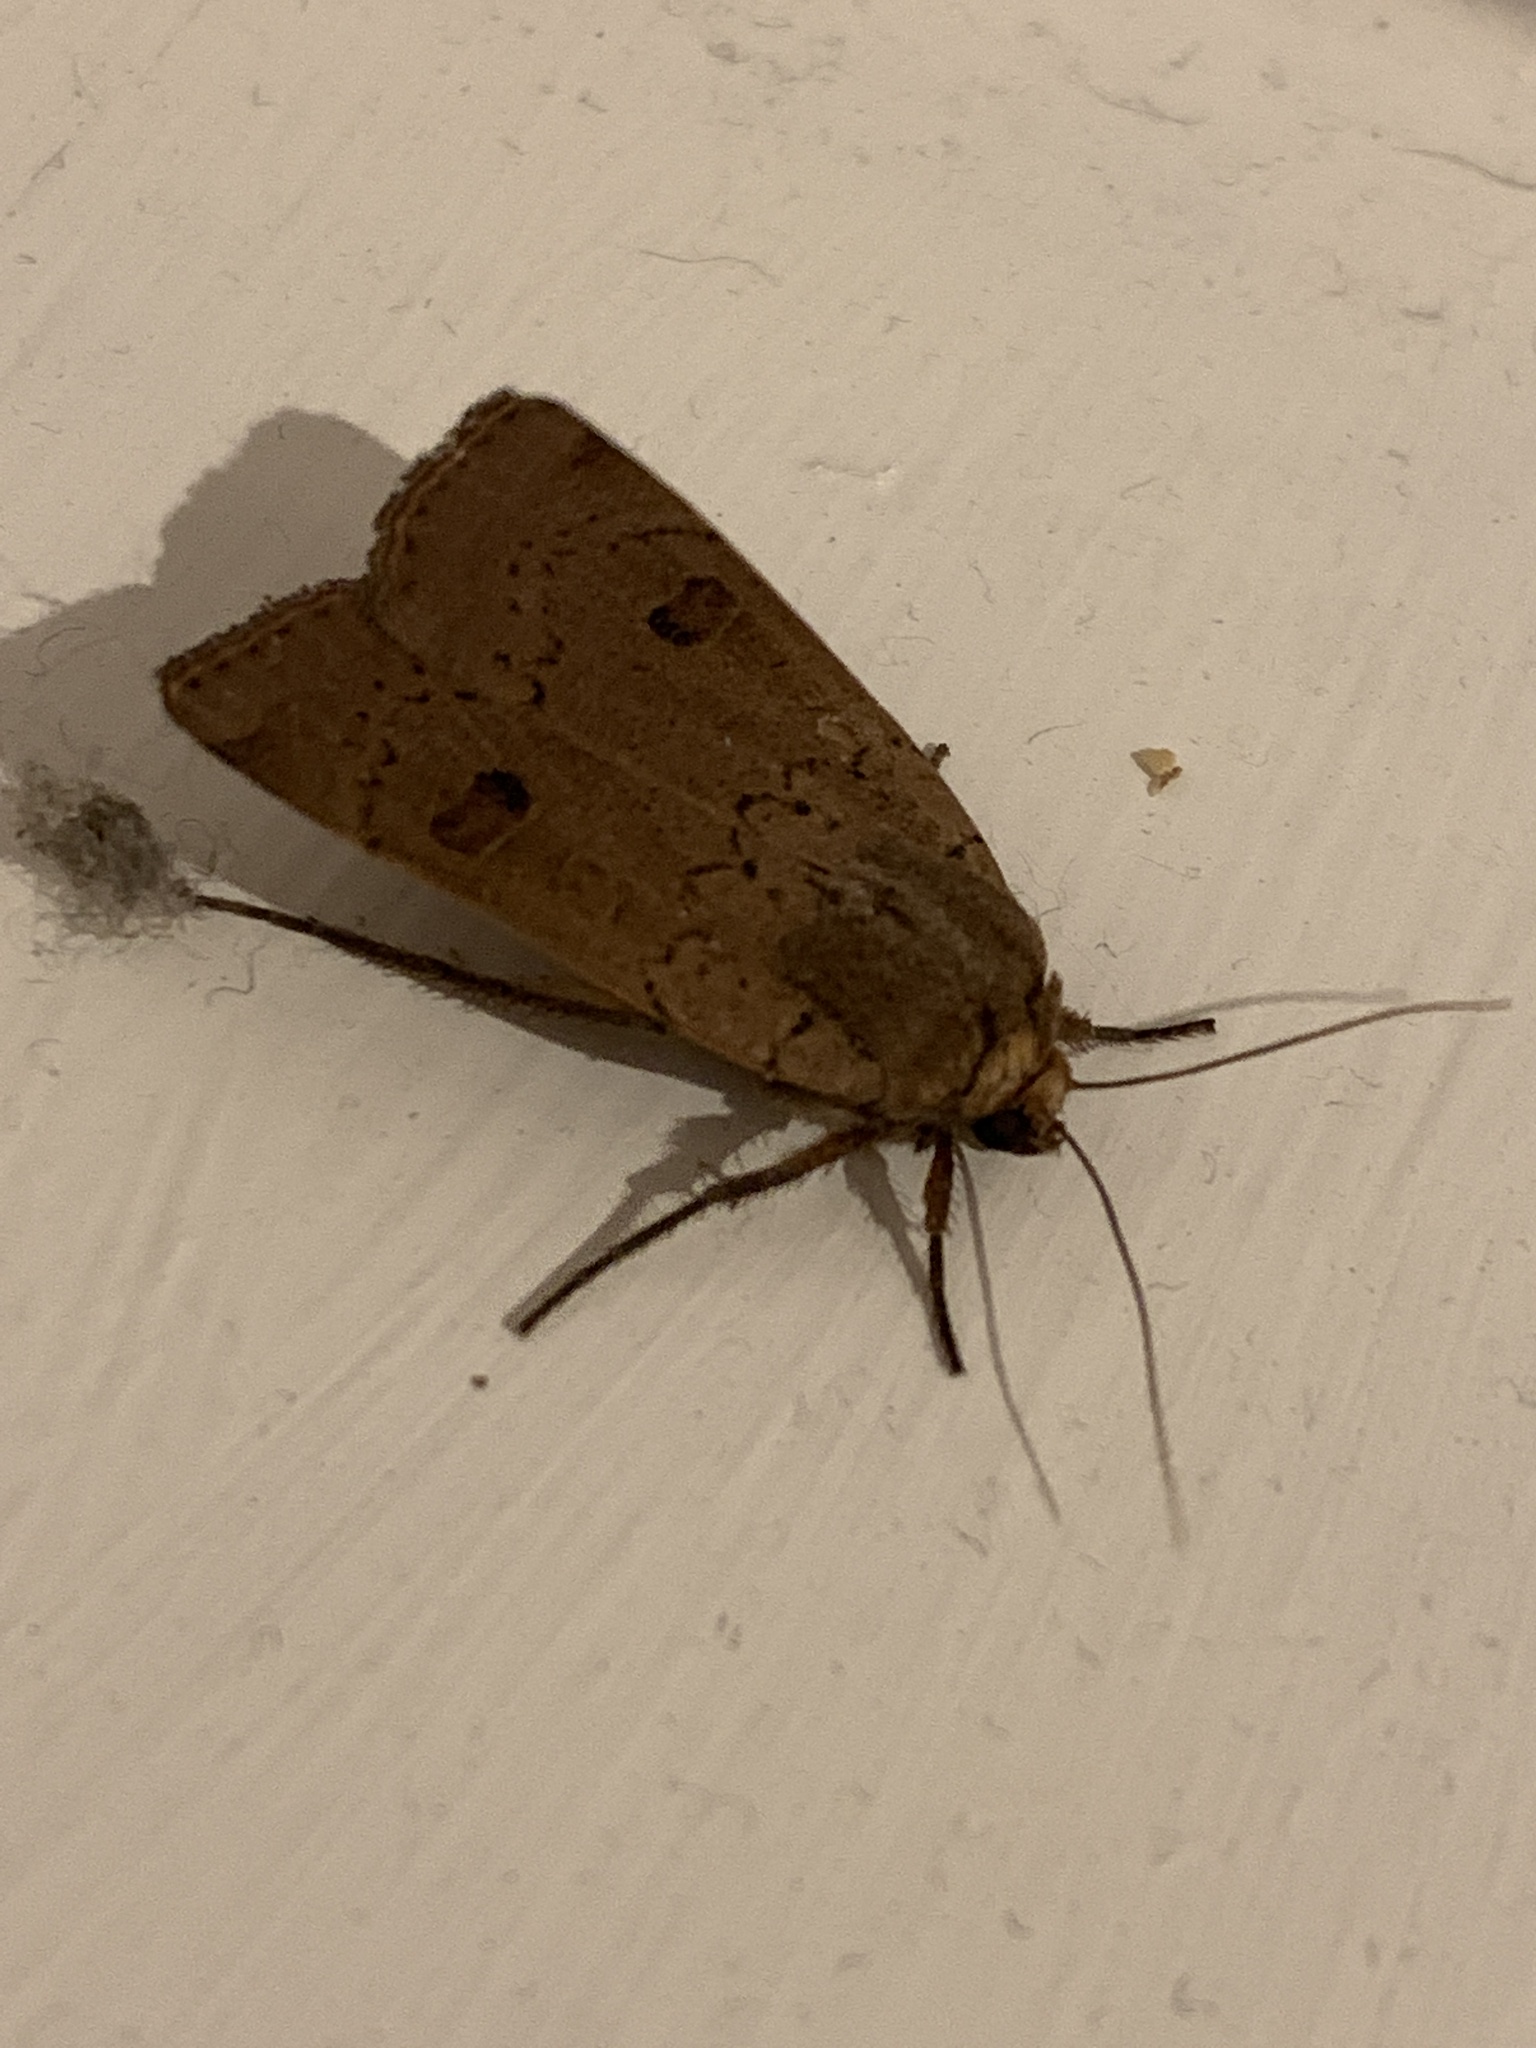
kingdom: Animalia
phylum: Arthropoda
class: Insecta
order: Lepidoptera
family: Noctuidae
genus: Noctua
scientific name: Noctua comes
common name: Lesser yellow underwing
